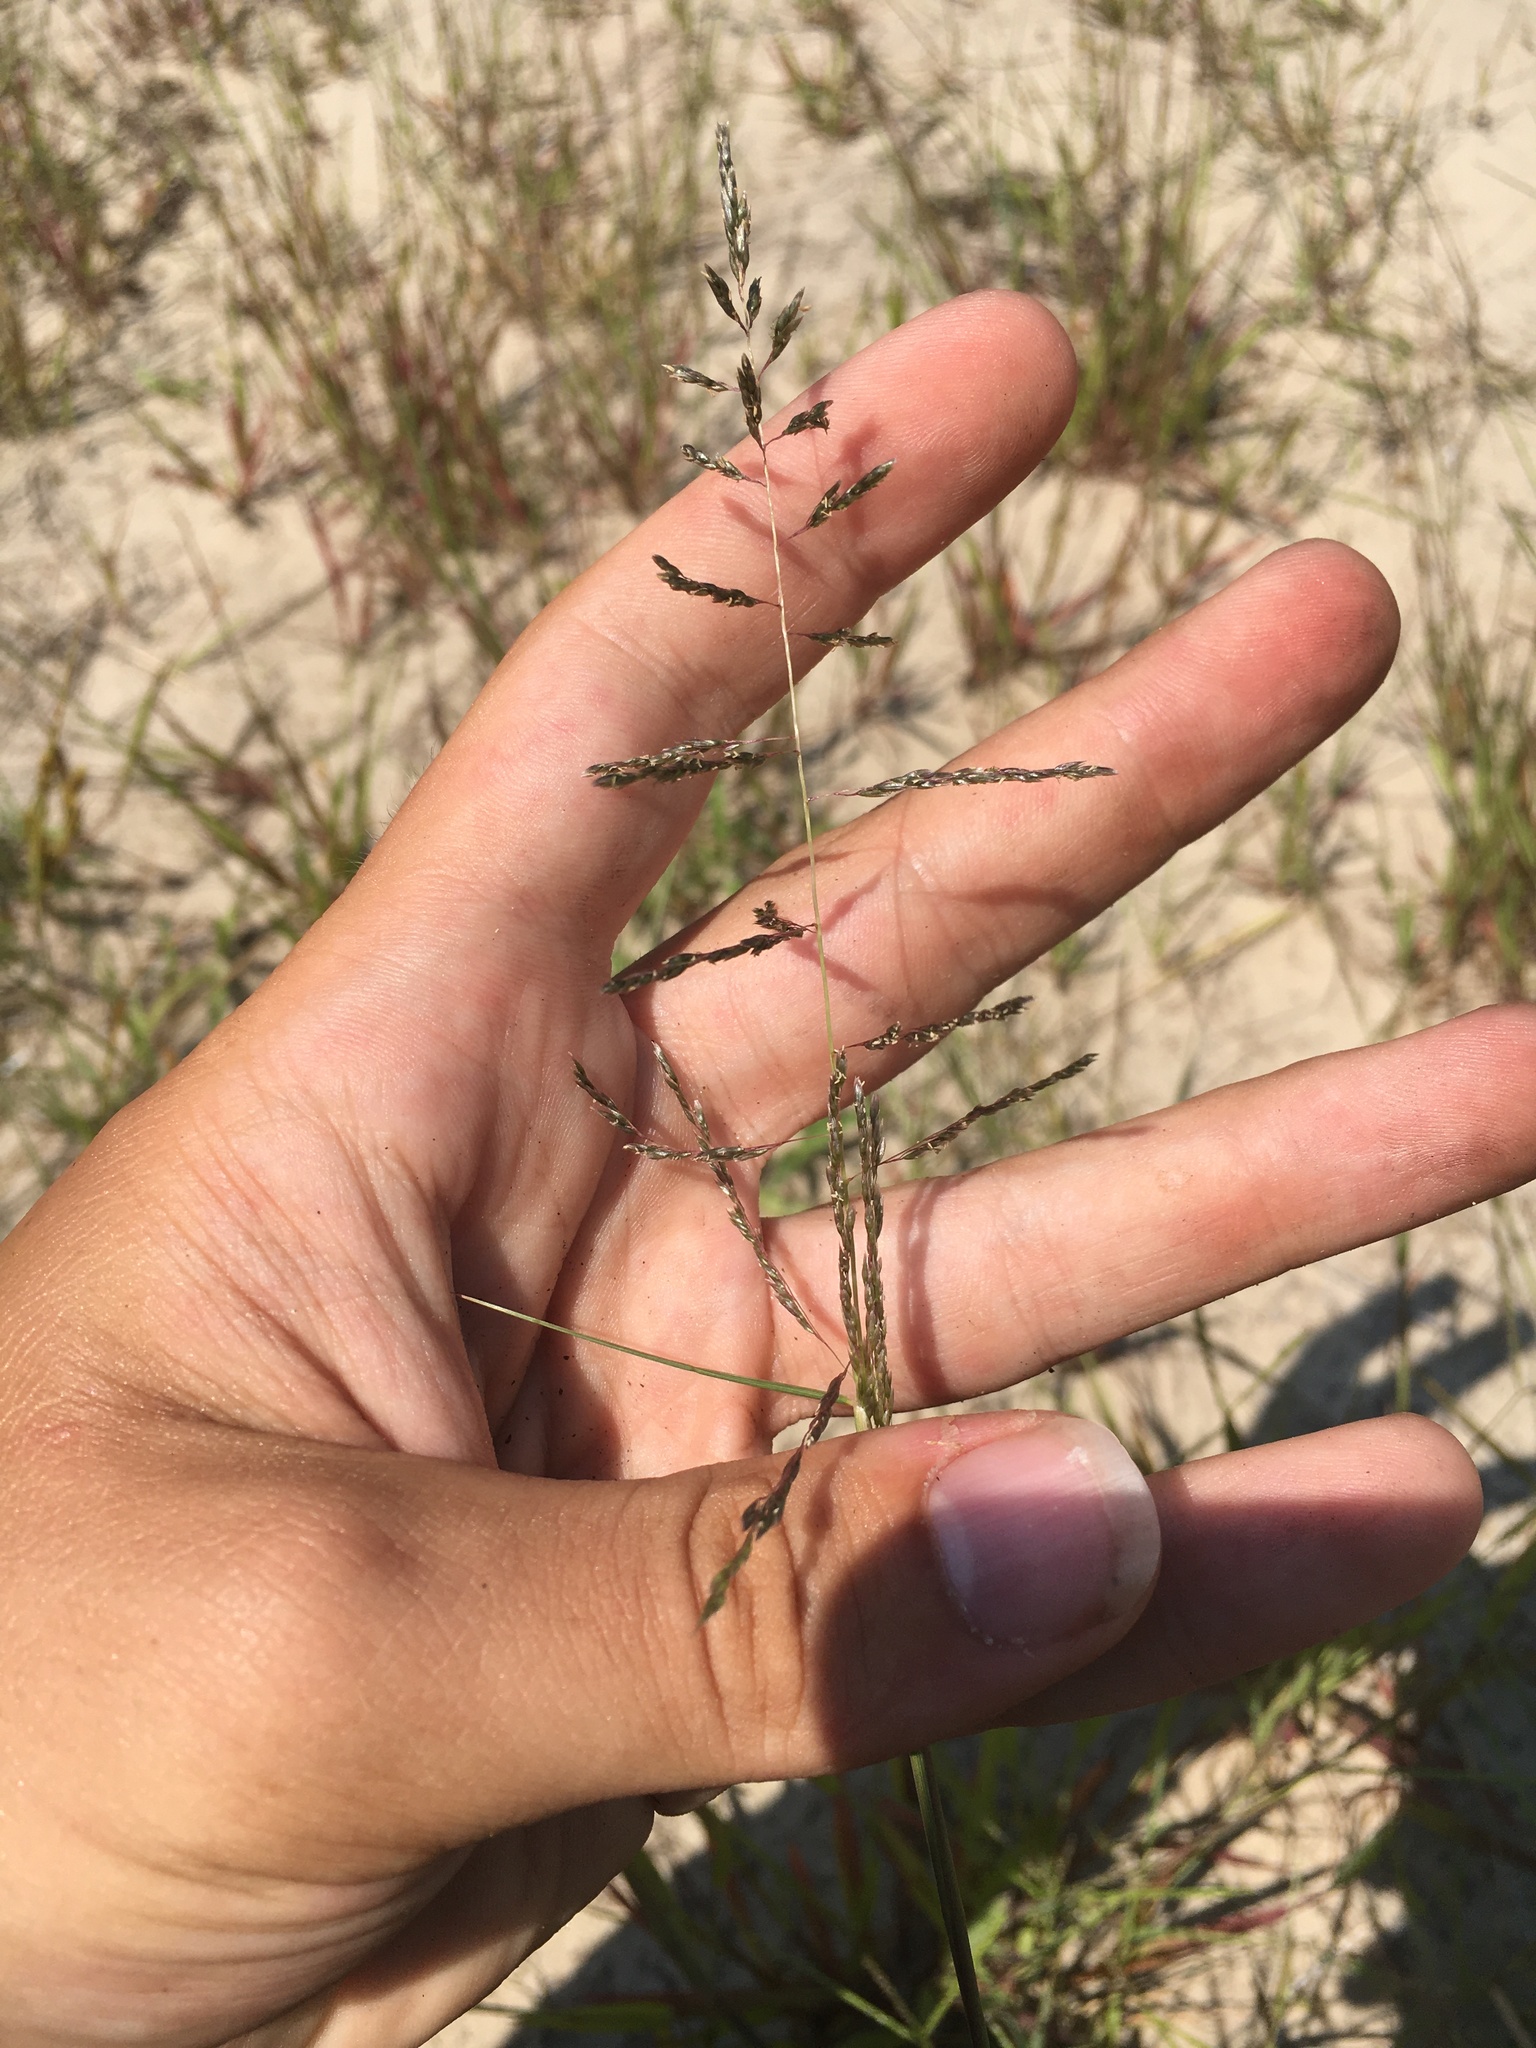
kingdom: Plantae
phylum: Tracheophyta
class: Liliopsida
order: Poales
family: Poaceae
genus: Sporobolus
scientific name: Sporobolus cryptandrus
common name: Sand dropseed
